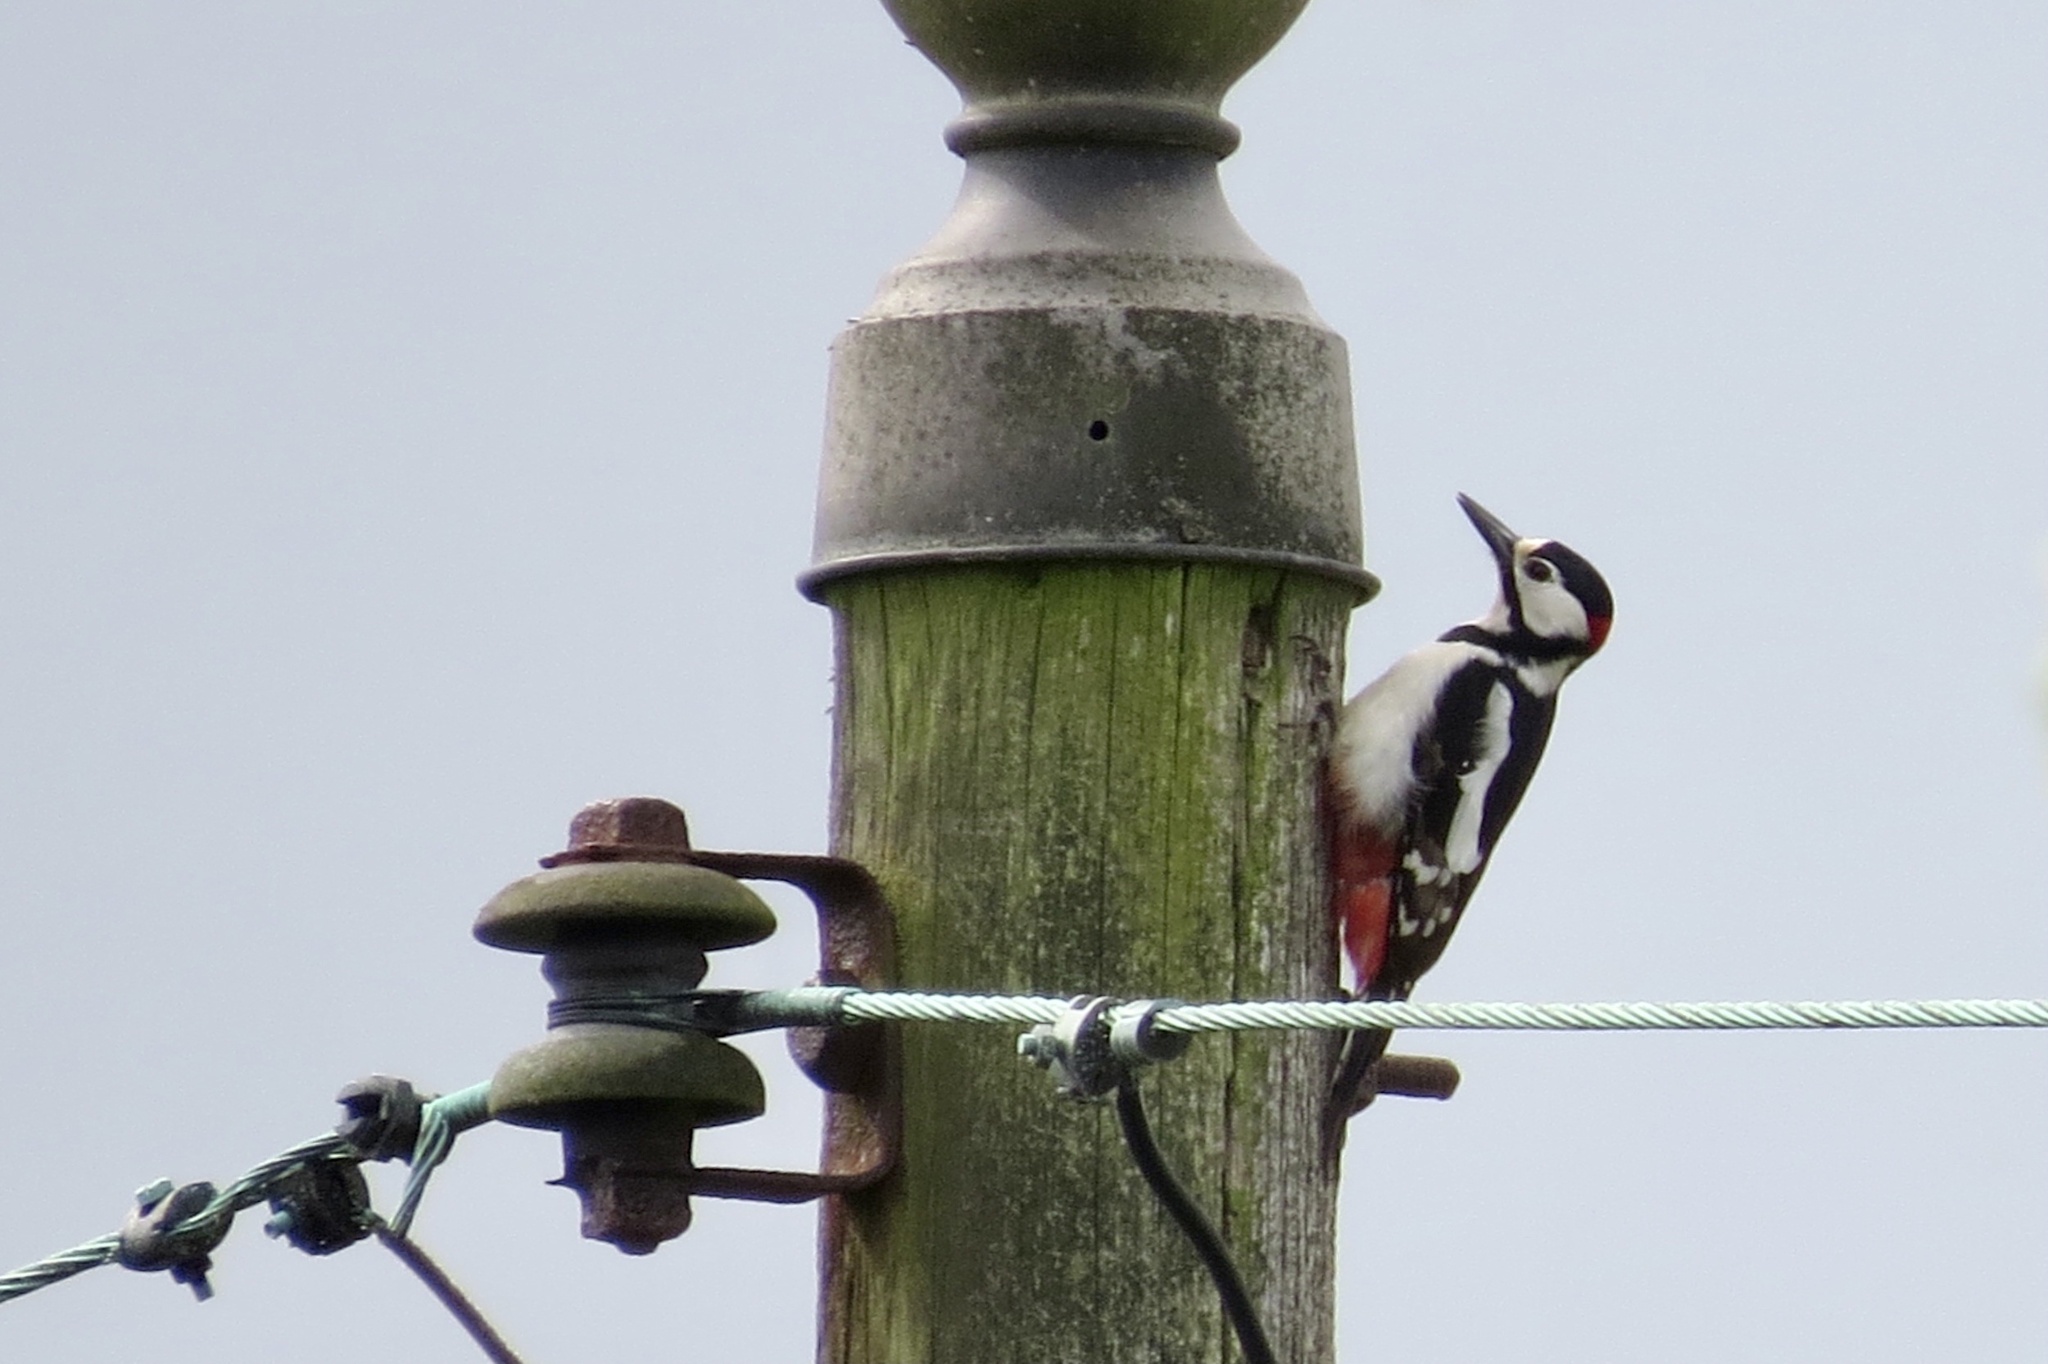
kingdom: Animalia
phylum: Chordata
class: Aves
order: Piciformes
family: Picidae
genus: Dendrocopos
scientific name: Dendrocopos major
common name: Great spotted woodpecker
